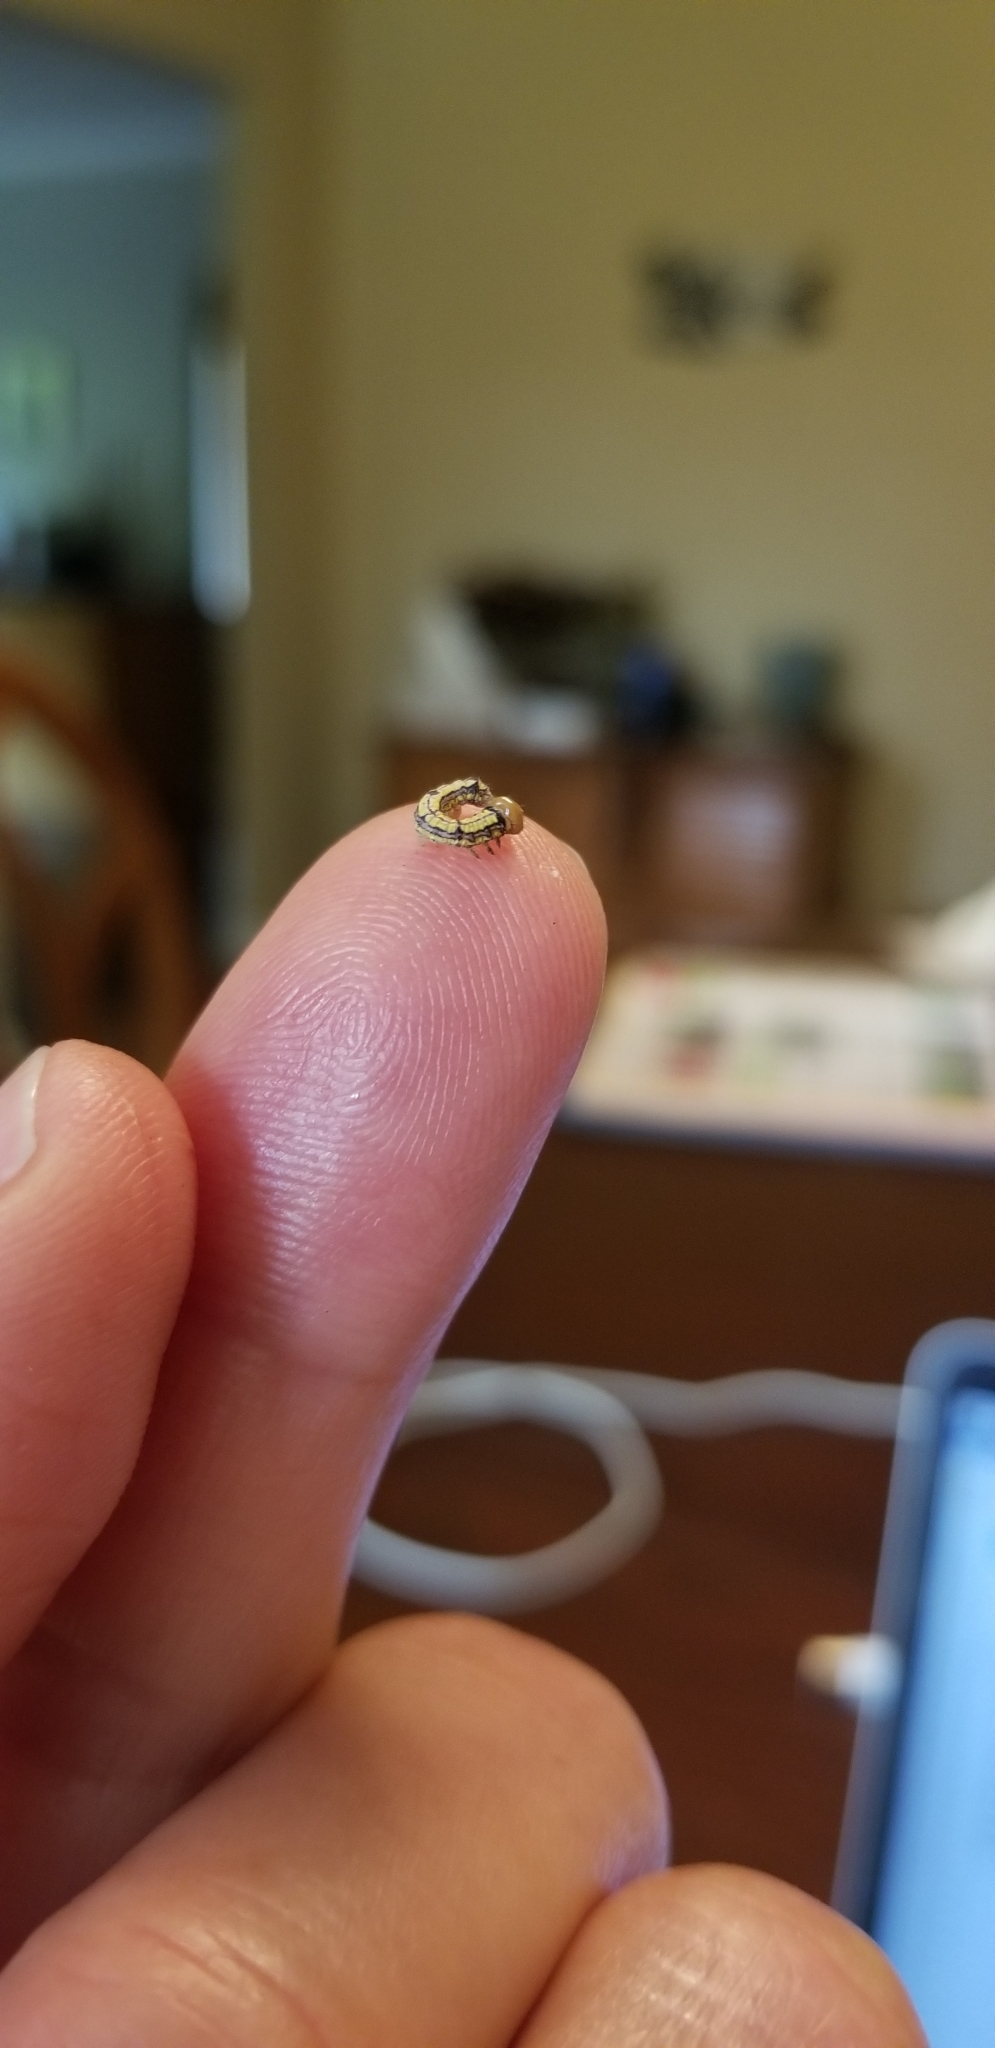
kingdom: Animalia
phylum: Arthropoda
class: Insecta
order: Lepidoptera
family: Notodontidae
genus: Phryganidia
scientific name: Phryganidia californica
